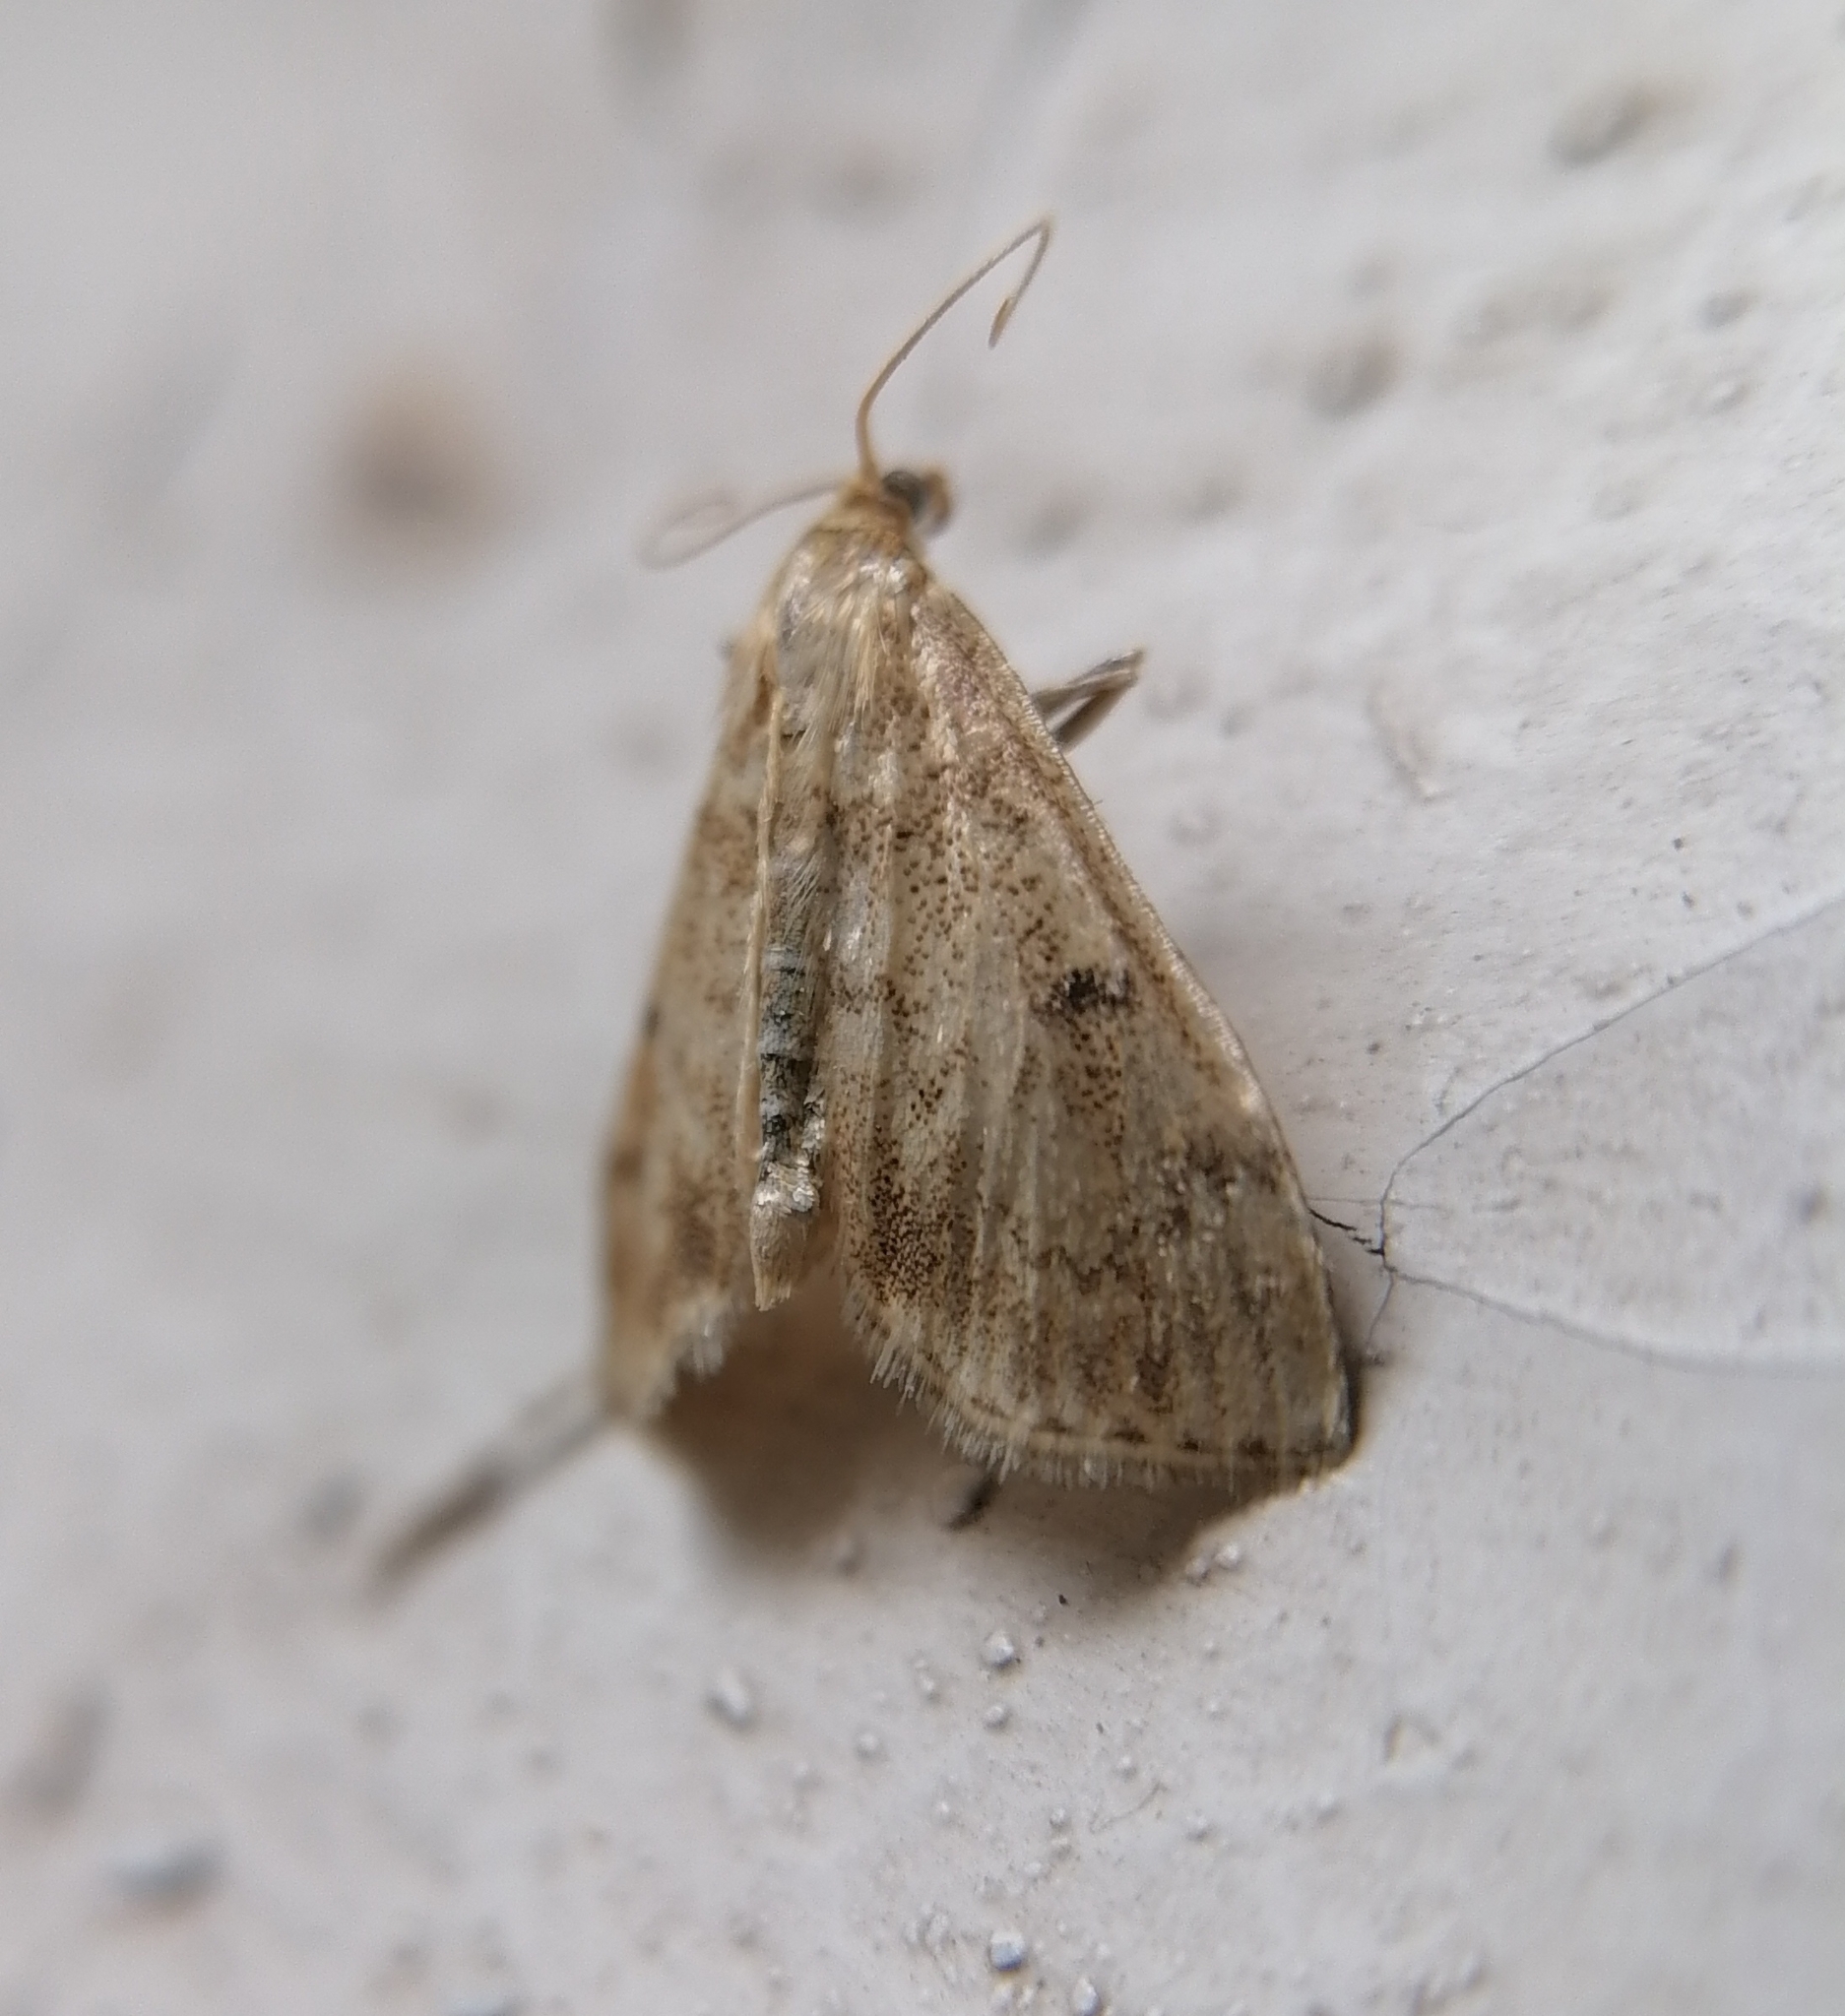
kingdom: Animalia
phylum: Arthropoda
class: Insecta
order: Lepidoptera
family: Crambidae
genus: Anania
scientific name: Anania perlucidalis
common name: Fenland pearl
